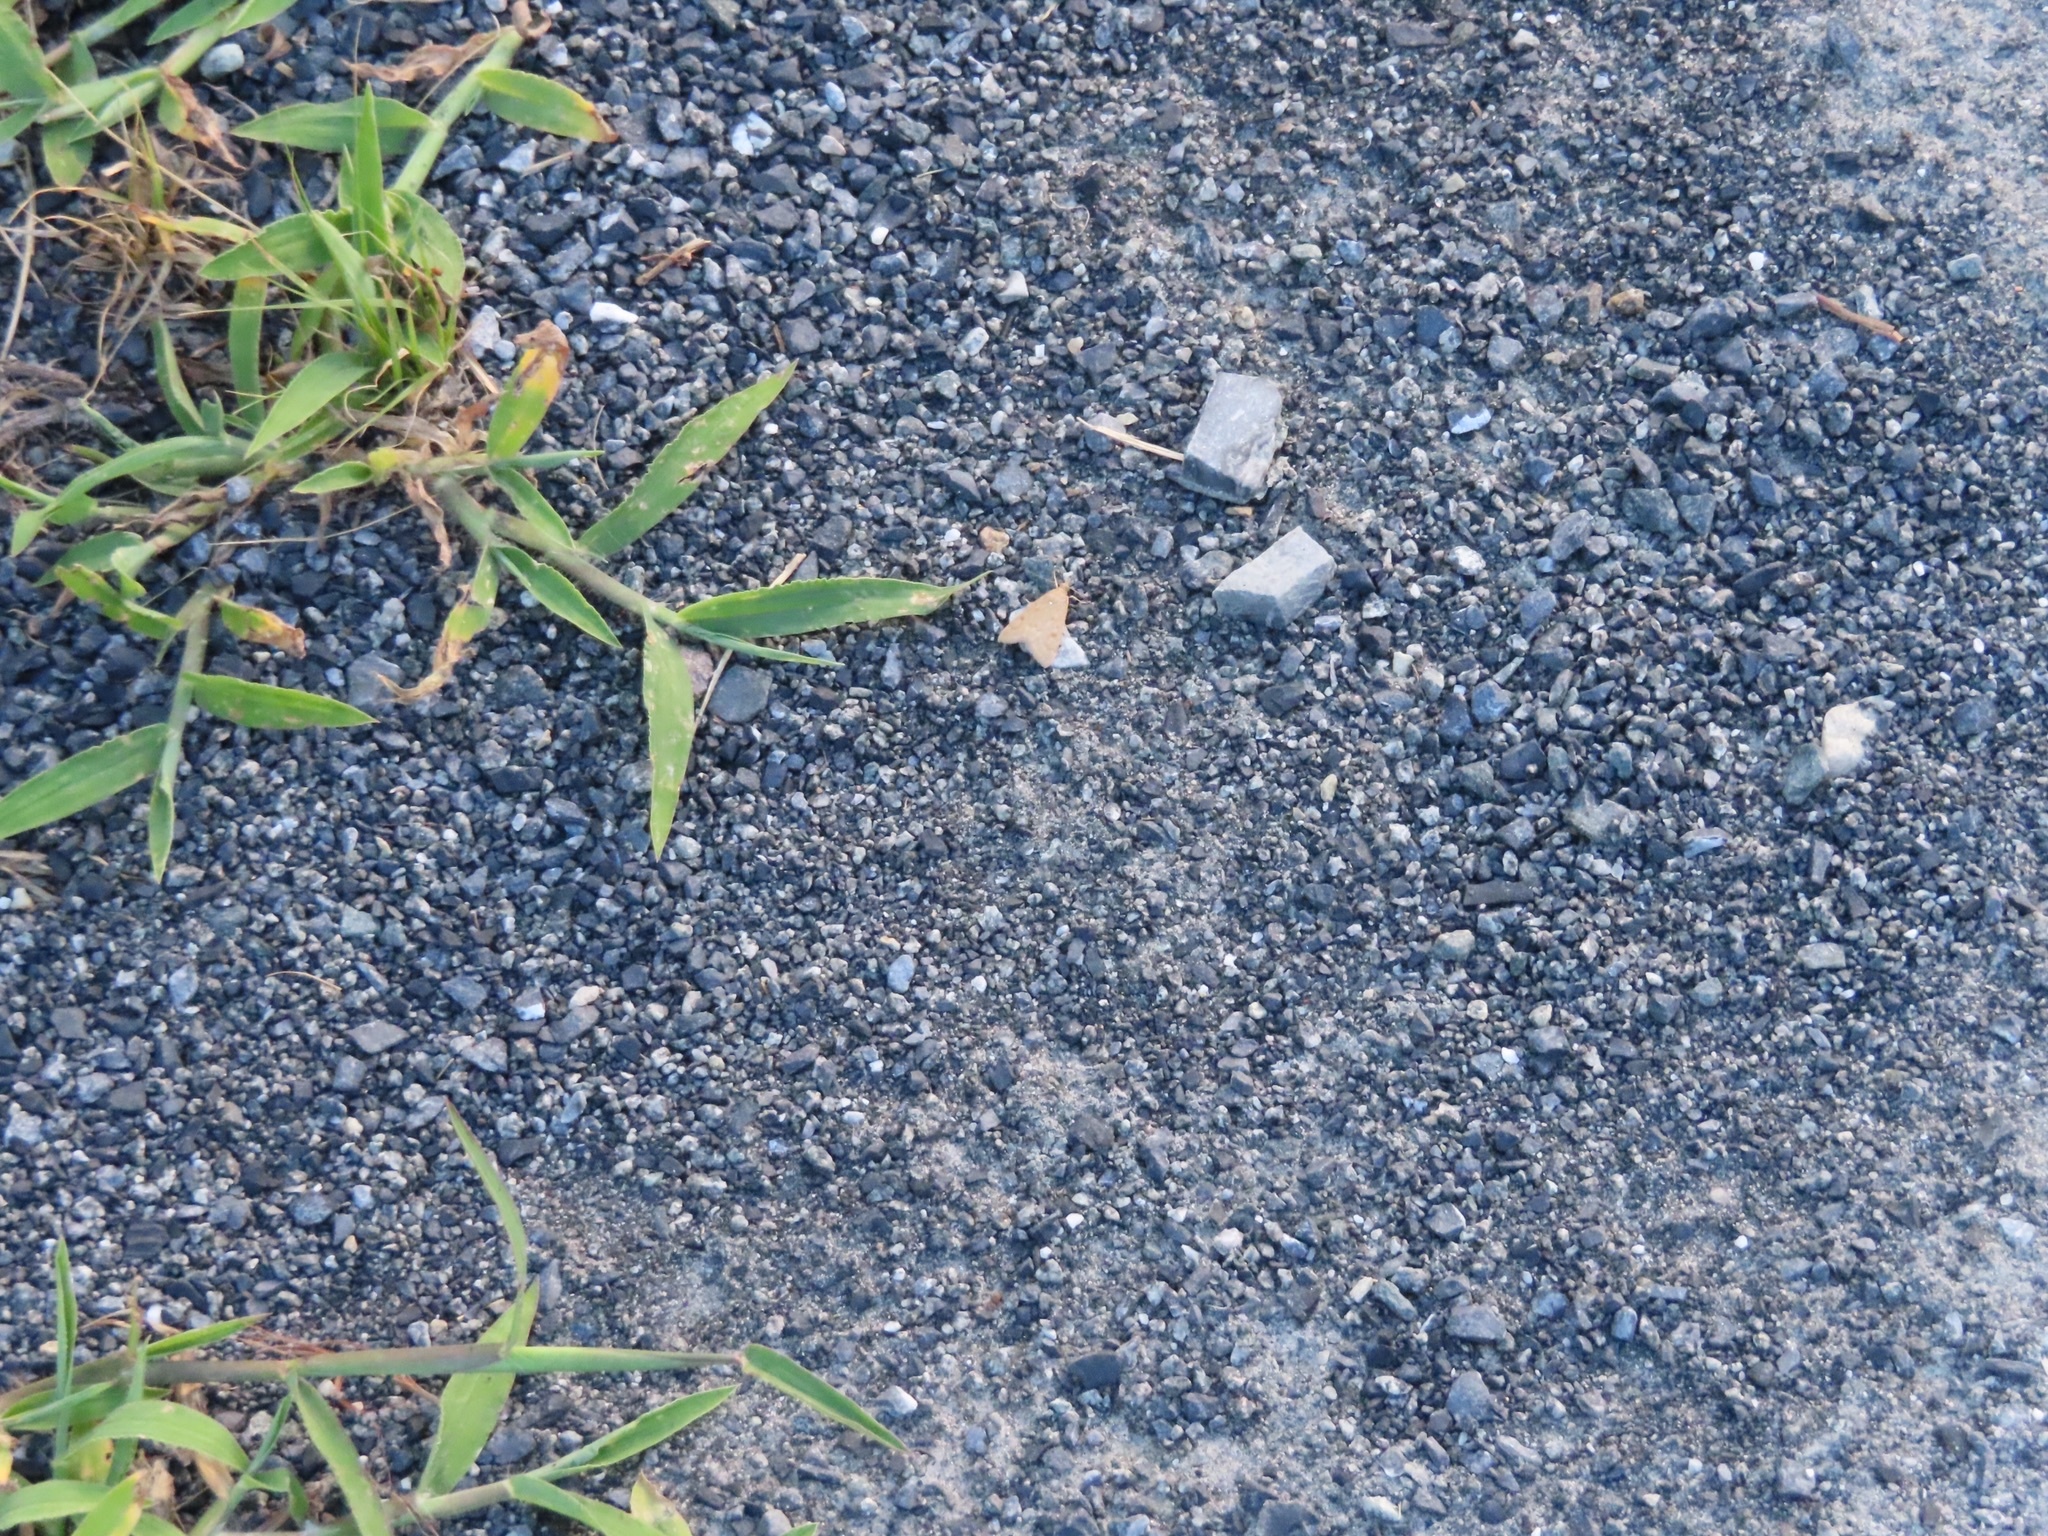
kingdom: Animalia
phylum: Arthropoda
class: Insecta
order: Lepidoptera
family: Crambidae
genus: Achyra
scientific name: Achyra rantalis
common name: Garden webworm
